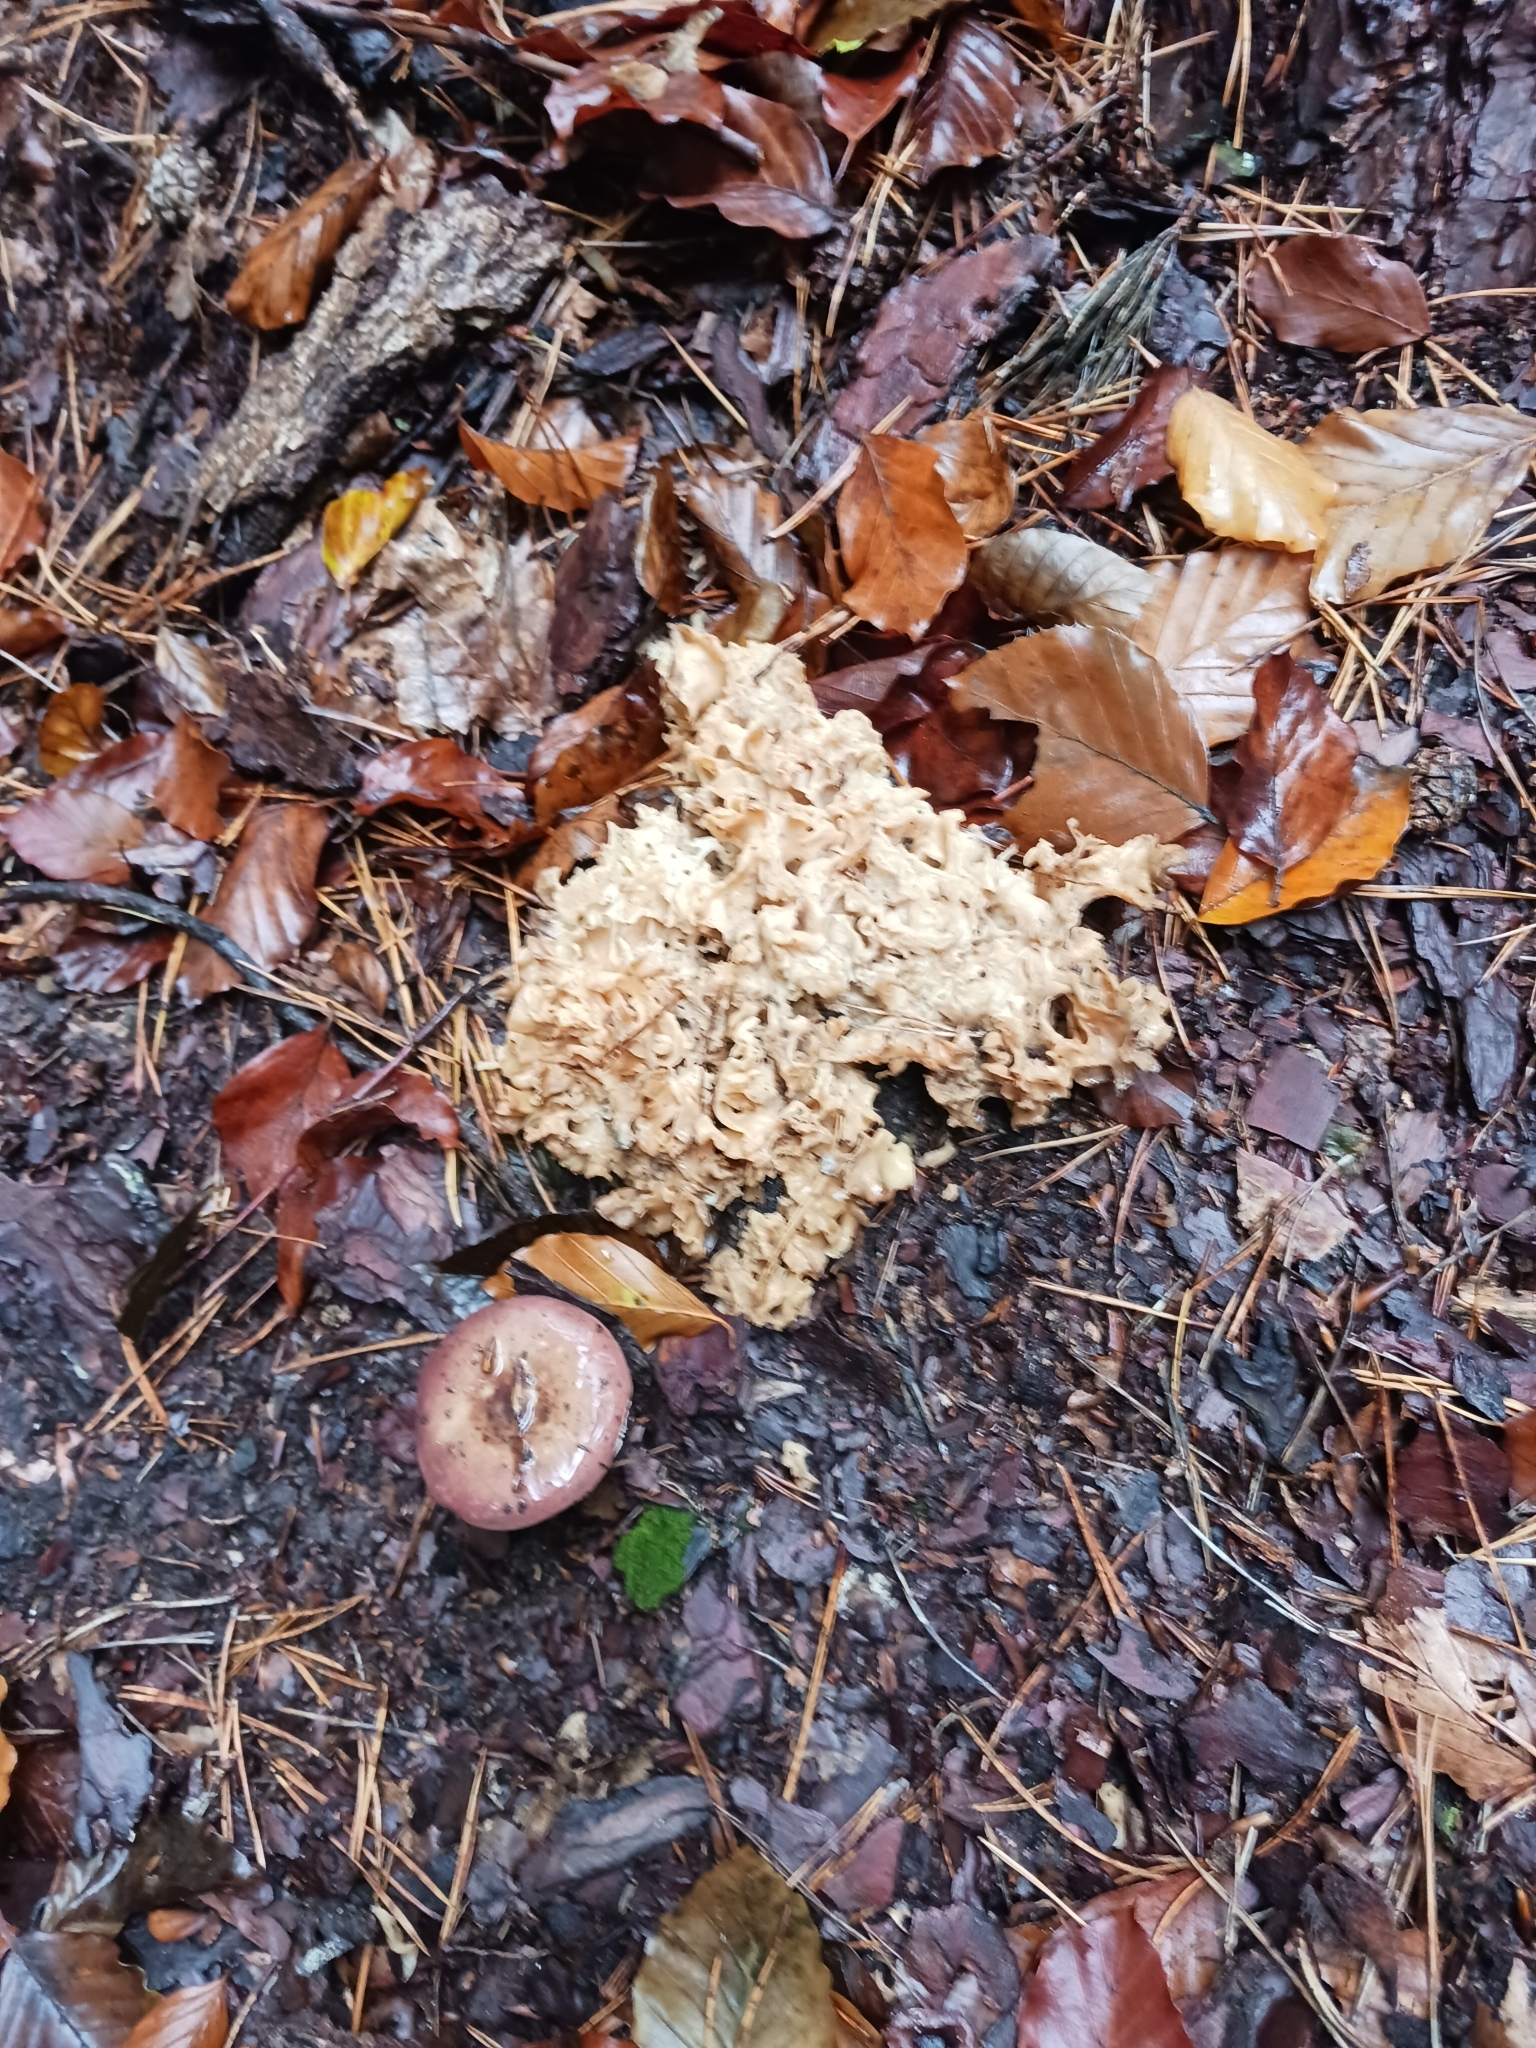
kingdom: Fungi
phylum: Basidiomycota
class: Agaricomycetes
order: Polyporales
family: Sparassidaceae
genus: Sparassis
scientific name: Sparassis crispa
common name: Brain fungus
